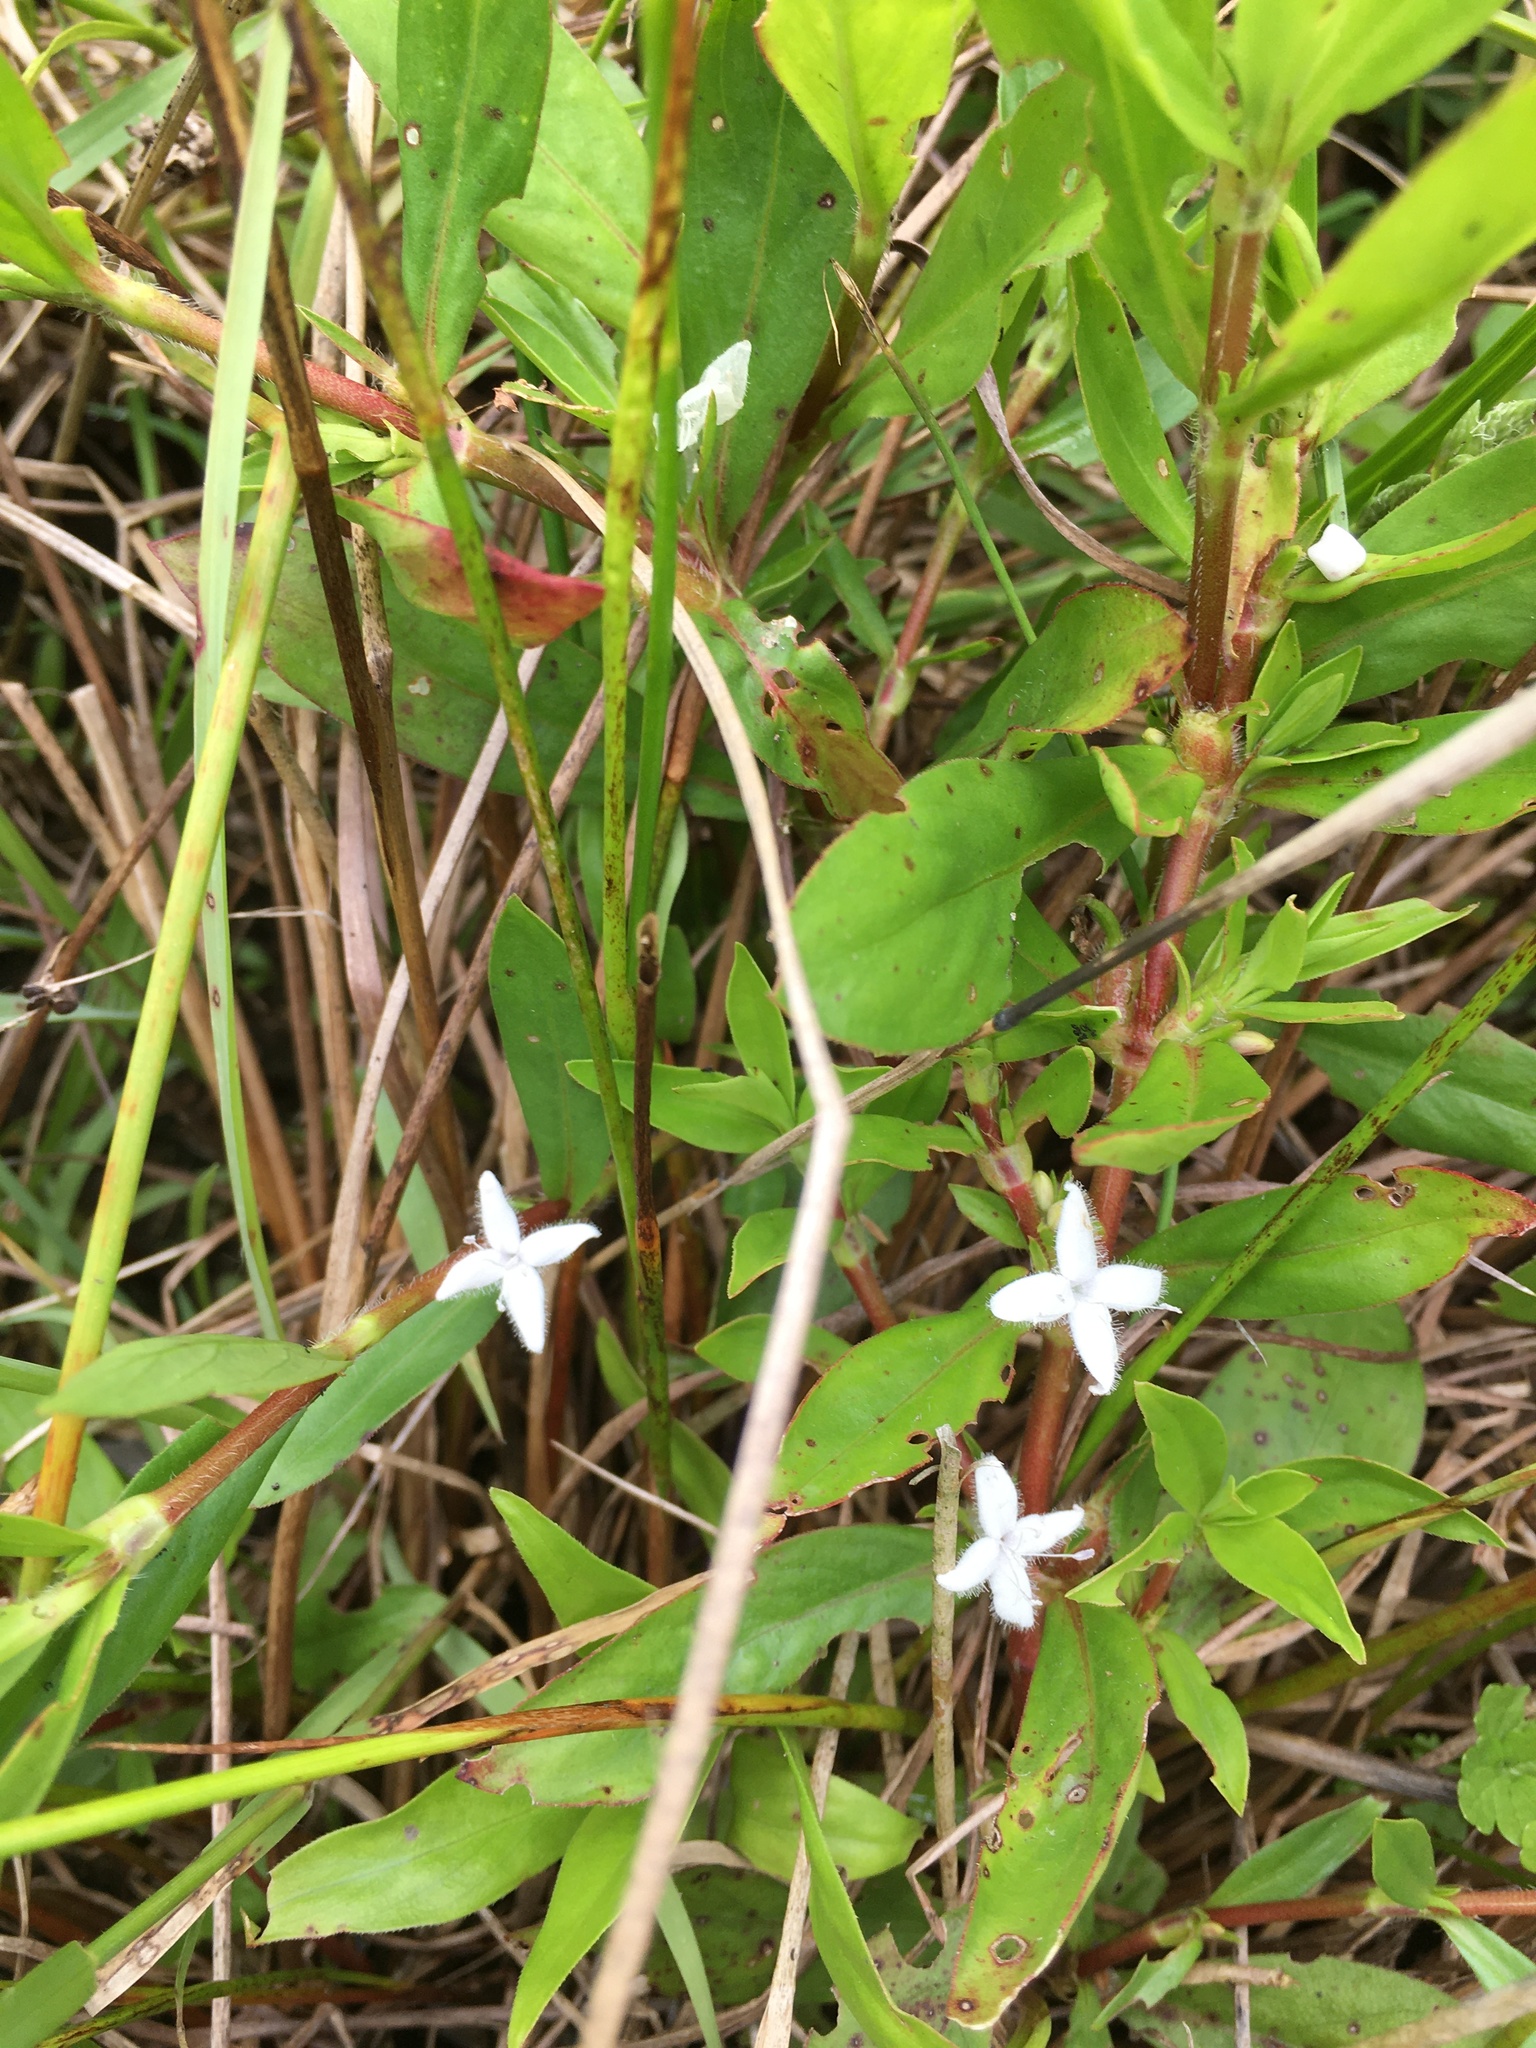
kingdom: Plantae
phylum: Tracheophyta
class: Magnoliopsida
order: Gentianales
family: Rubiaceae
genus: Diodia
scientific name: Diodia virginiana
